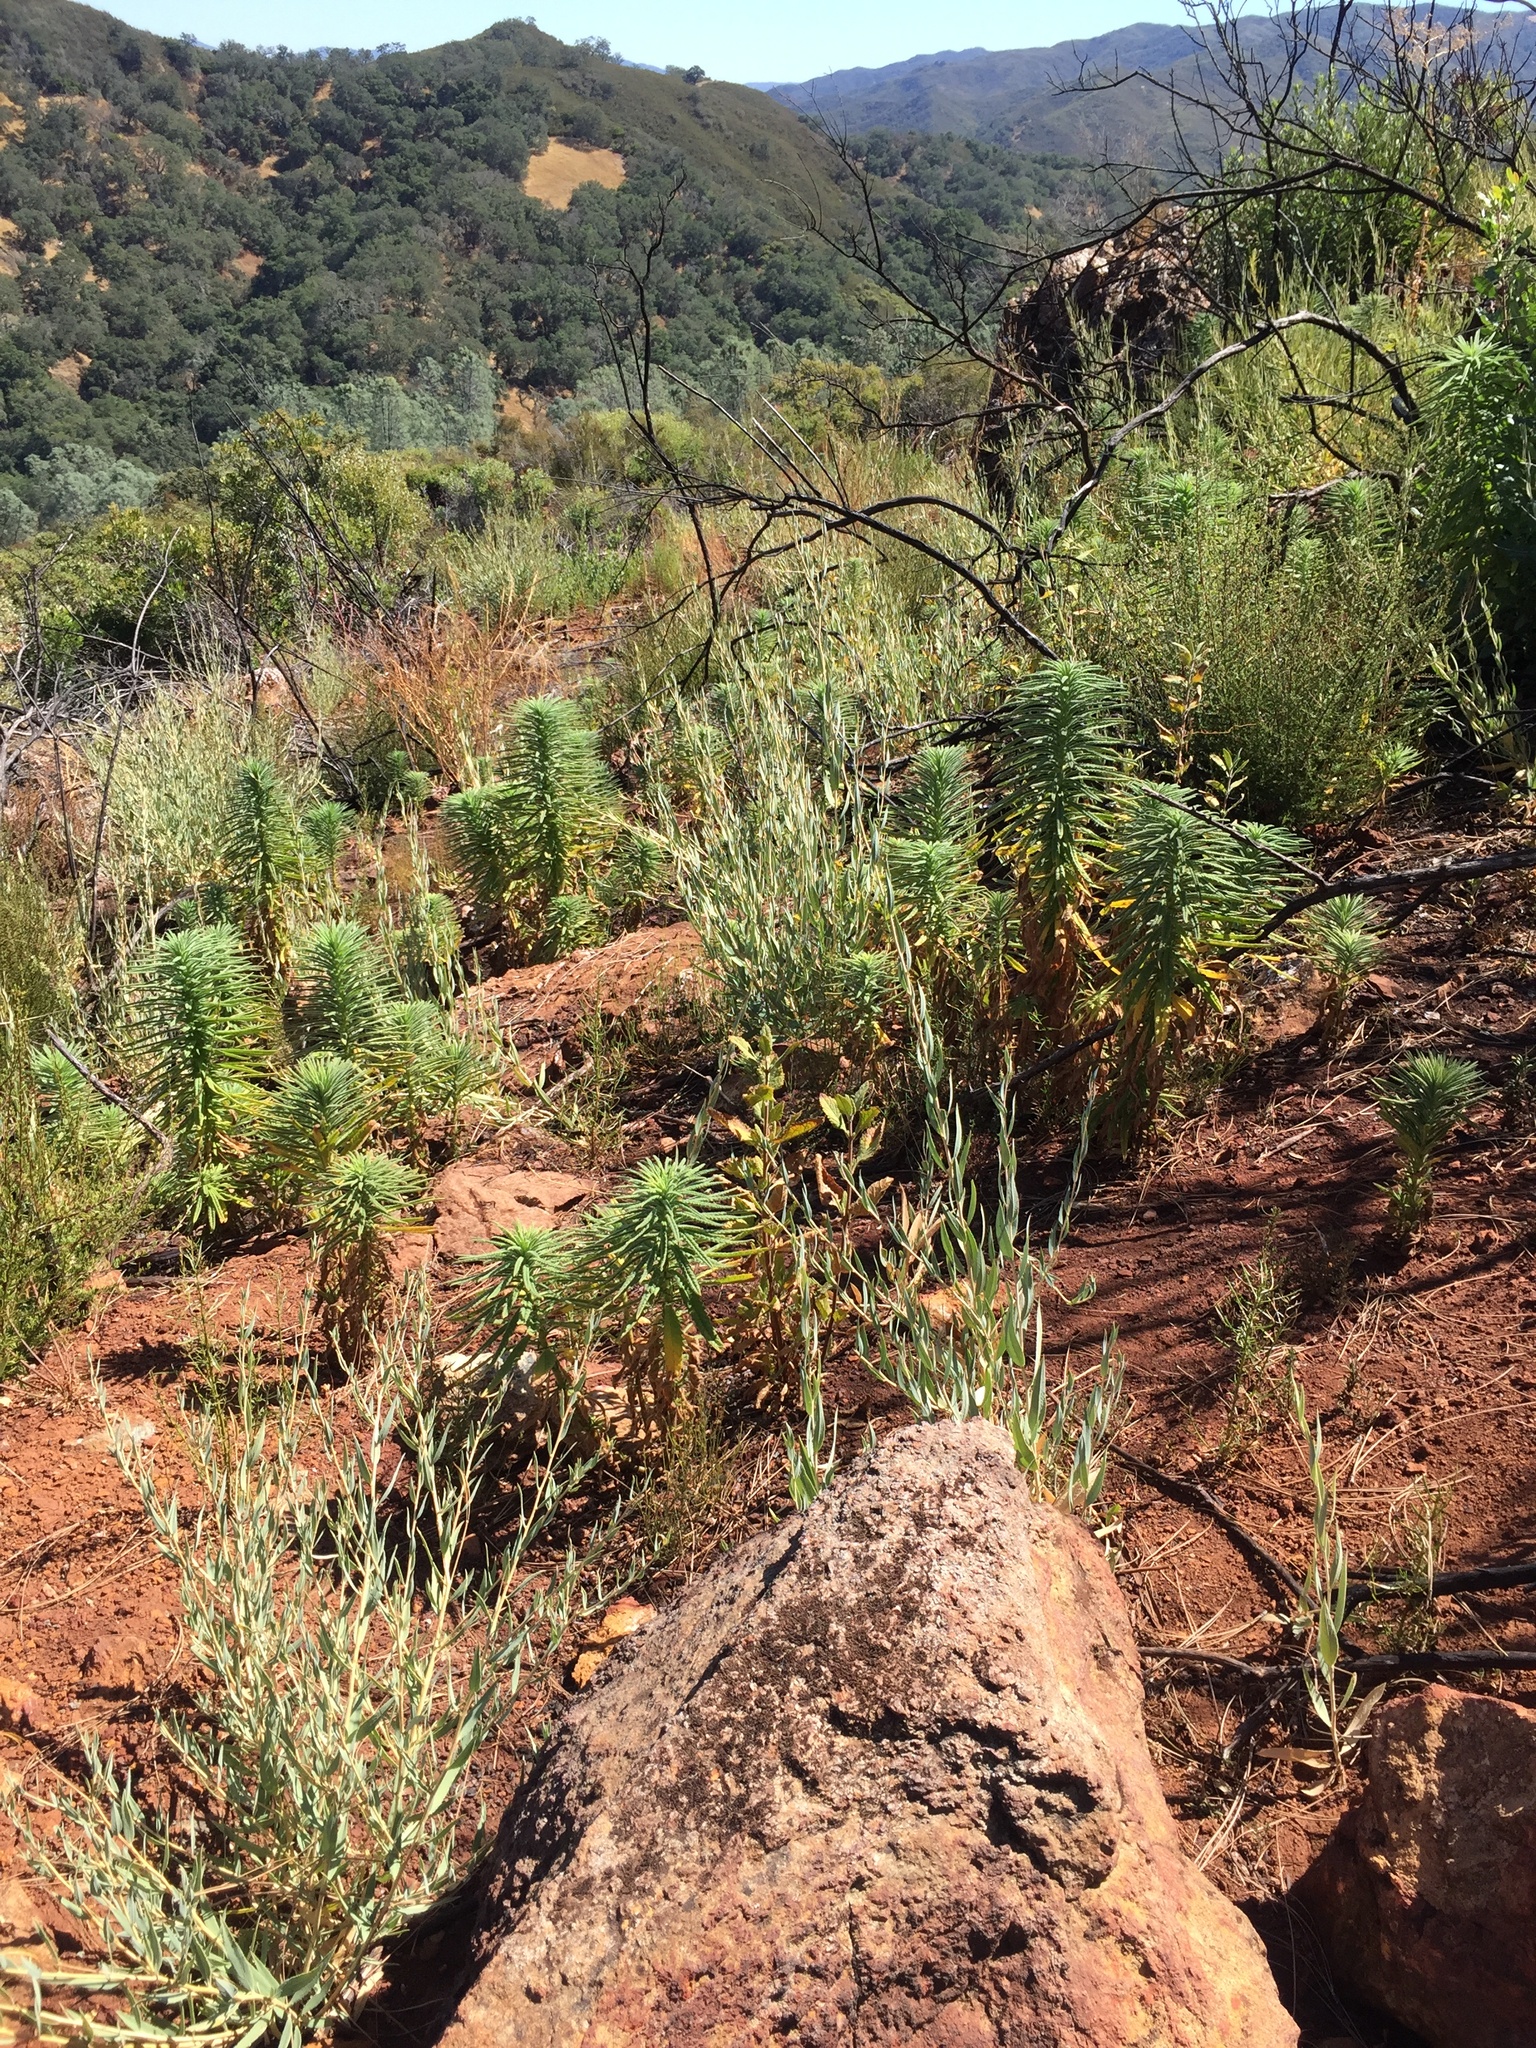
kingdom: Plantae
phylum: Tracheophyta
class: Magnoliopsida
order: Boraginales
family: Namaceae
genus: Turricula
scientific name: Turricula parryi
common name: Poodle-dog-bush
